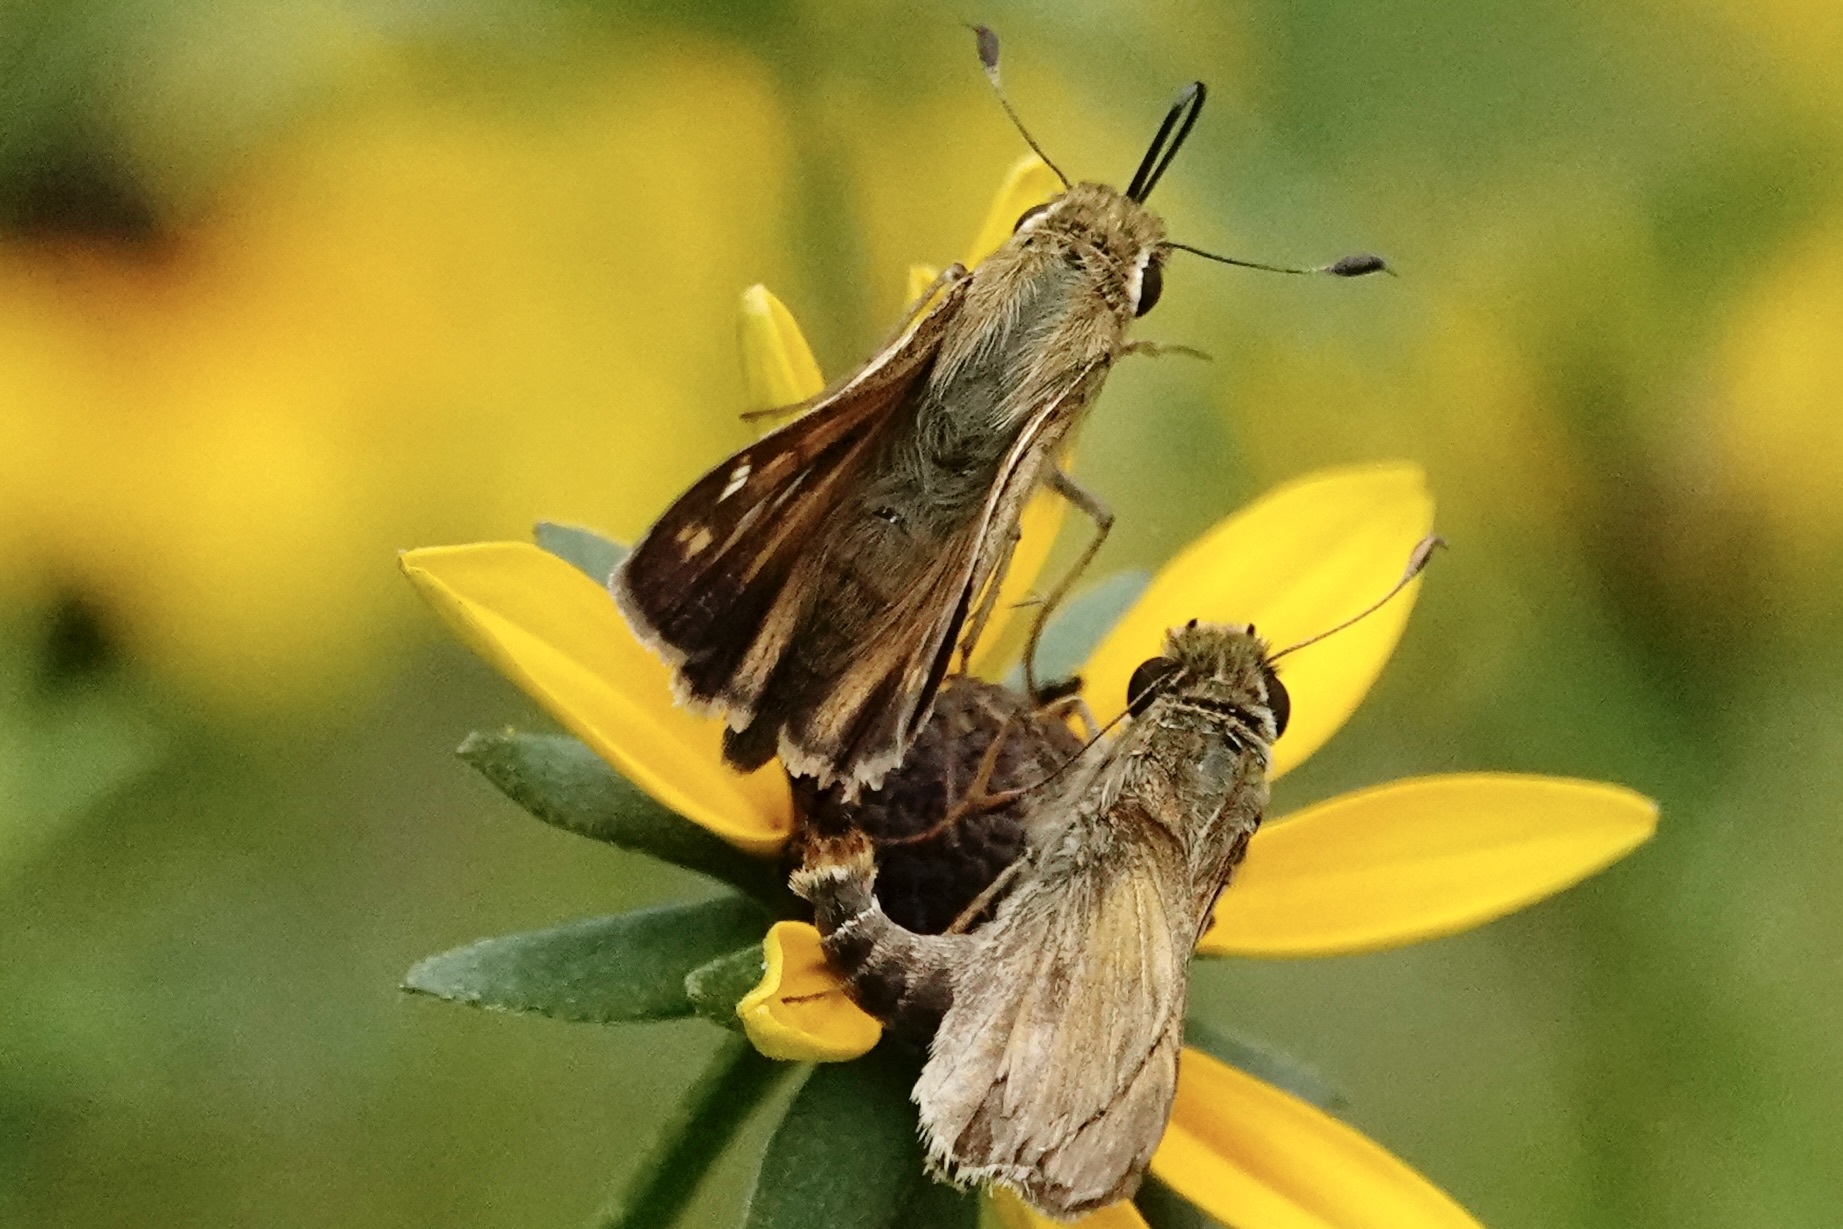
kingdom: Animalia
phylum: Arthropoda
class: Insecta
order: Lepidoptera
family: Hesperiidae
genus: Atalopedes
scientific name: Atalopedes
